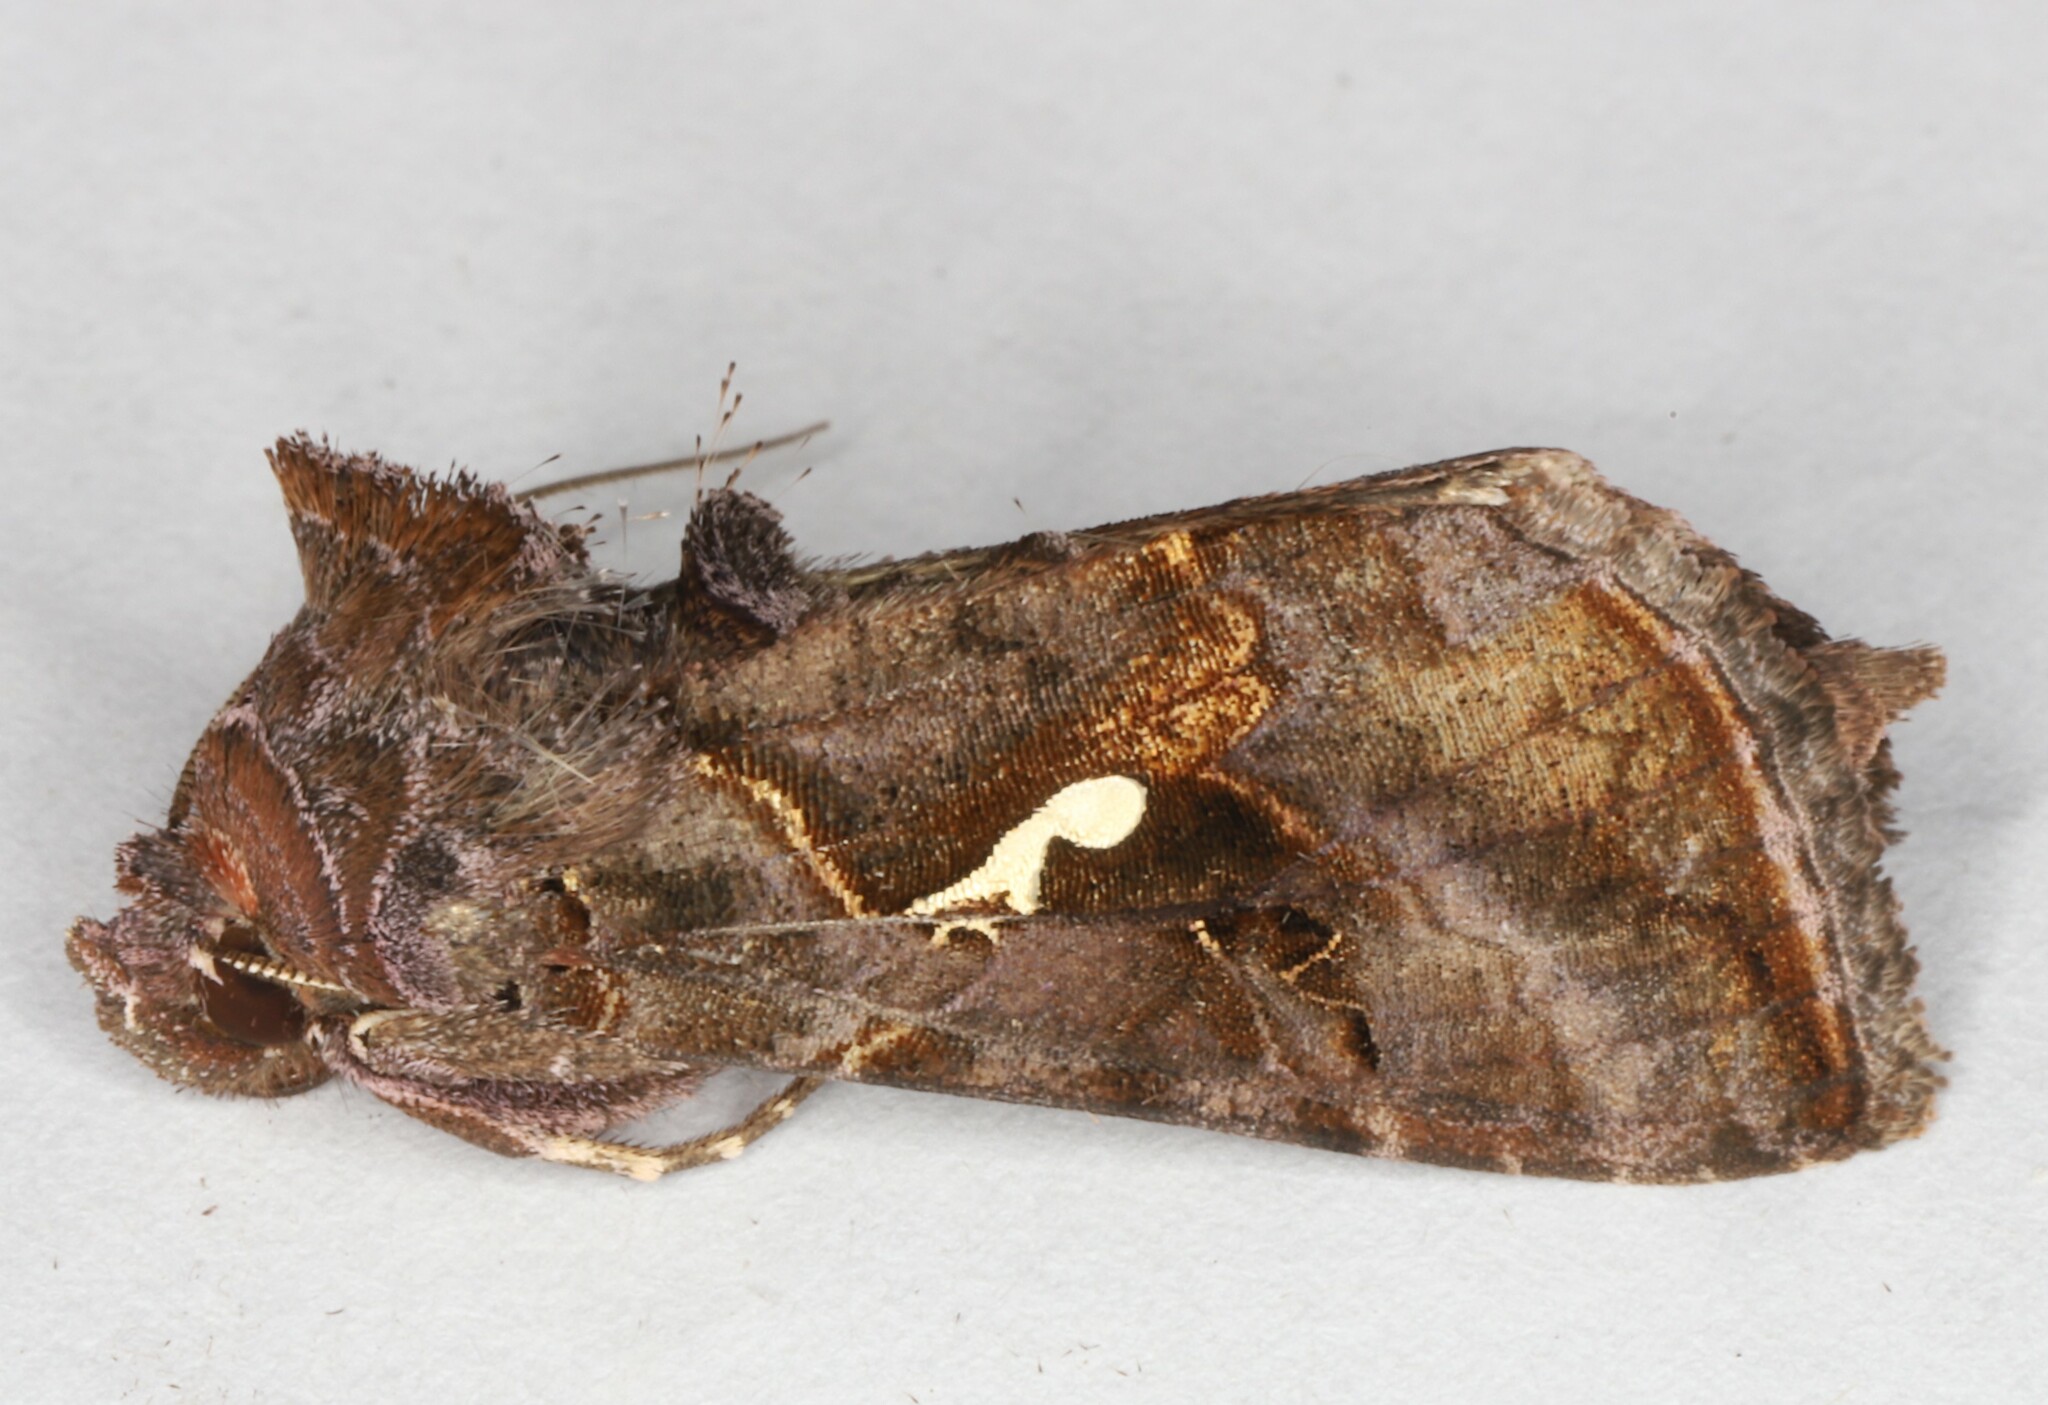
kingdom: Animalia
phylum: Arthropoda
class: Insecta
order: Lepidoptera
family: Noctuidae
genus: Autographa
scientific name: Autographa precationis
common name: Common looper moth
